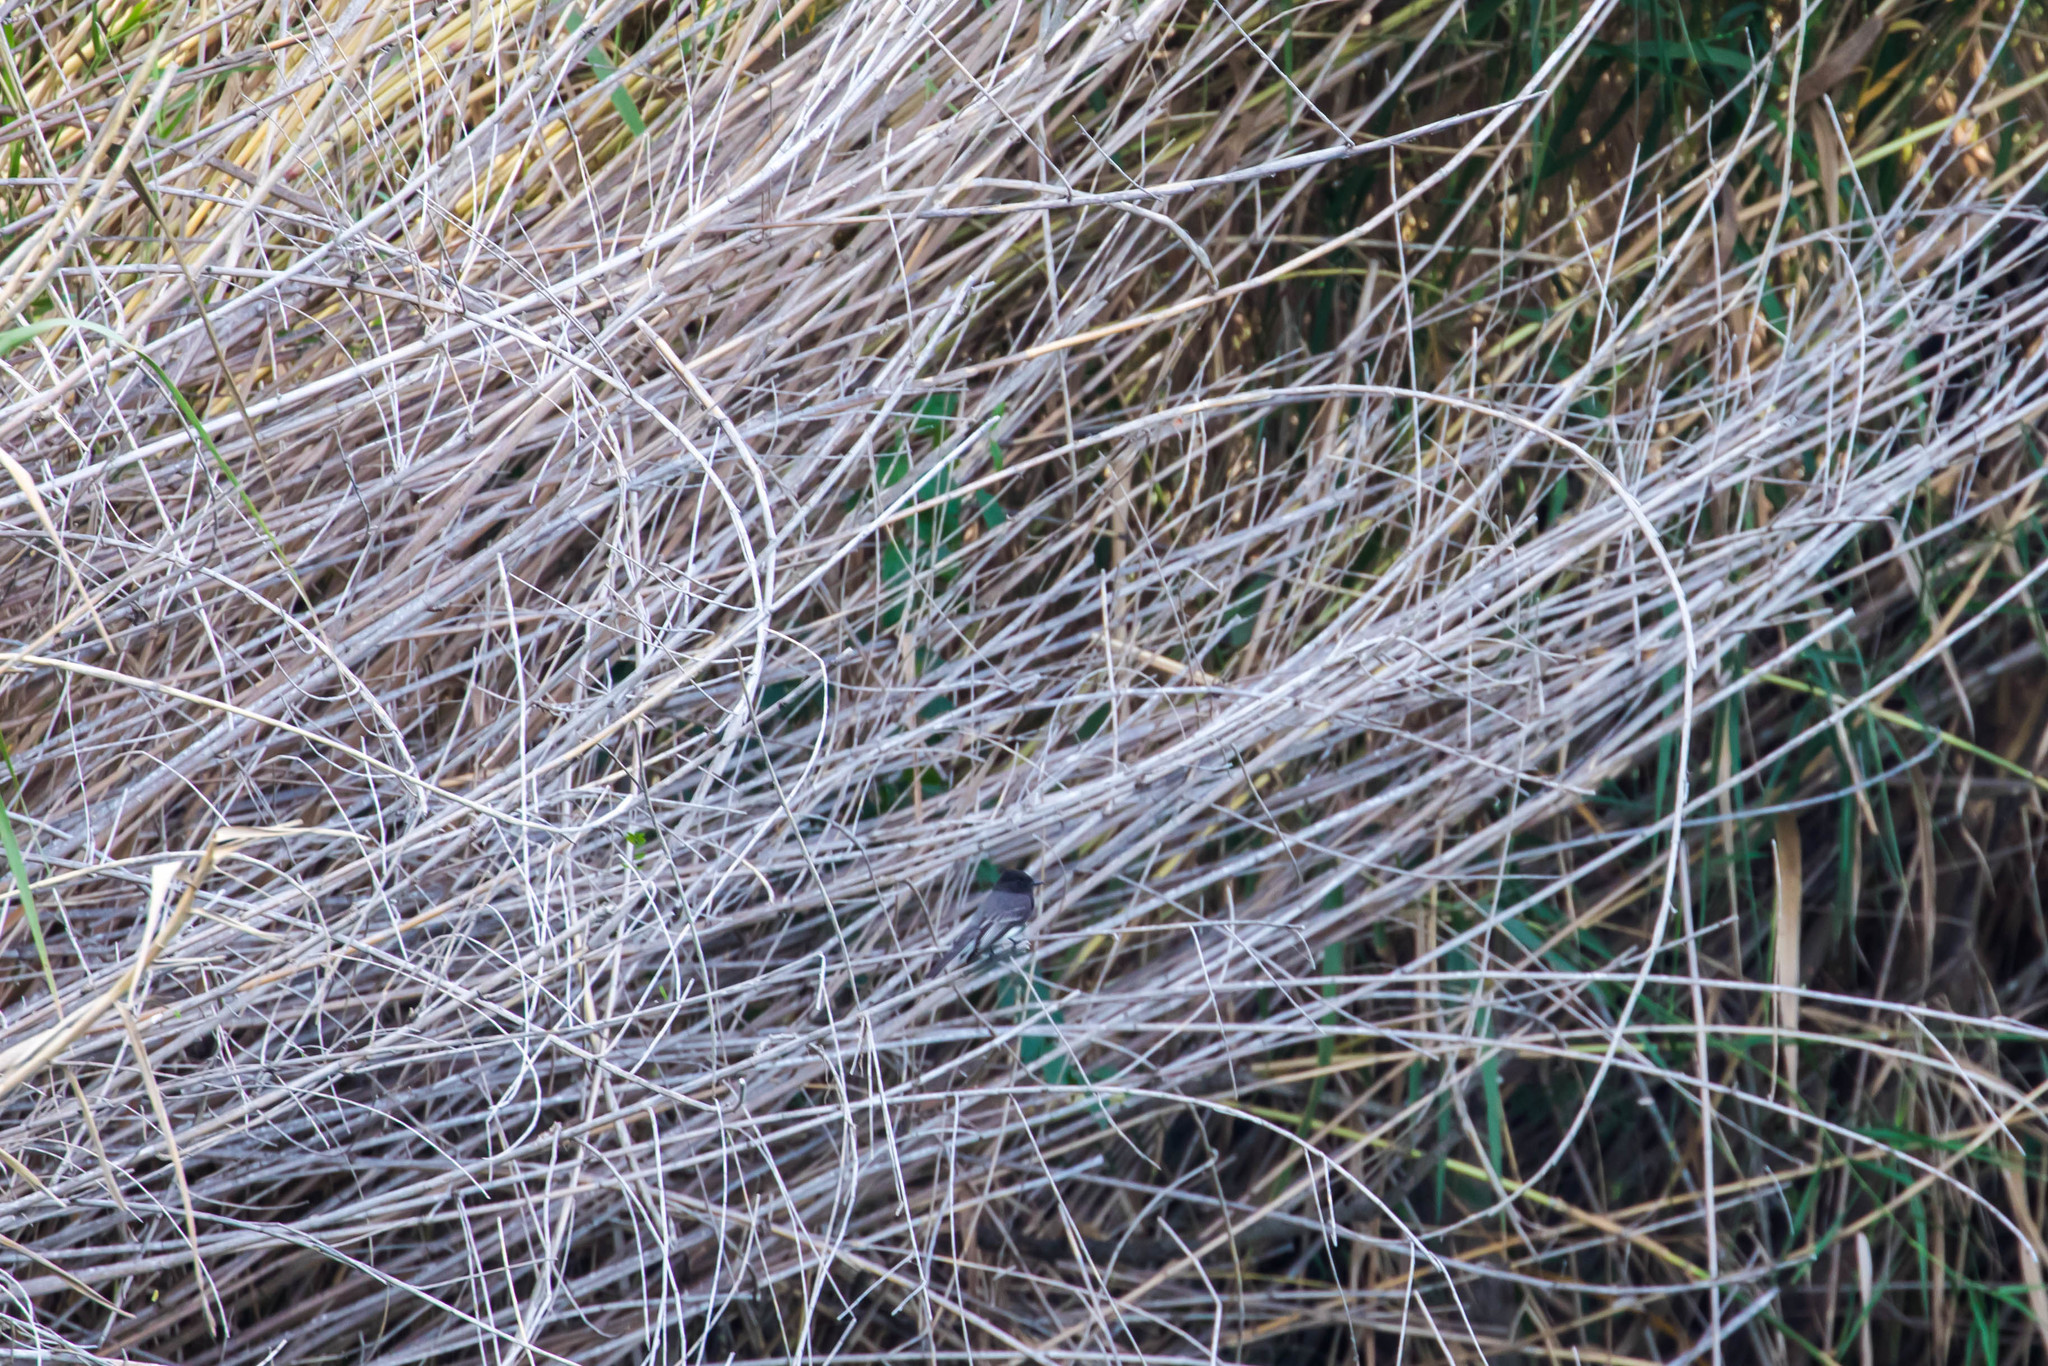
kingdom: Animalia
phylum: Chordata
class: Aves
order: Passeriformes
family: Tyrannidae
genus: Sayornis
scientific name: Sayornis nigricans
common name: Black phoebe
